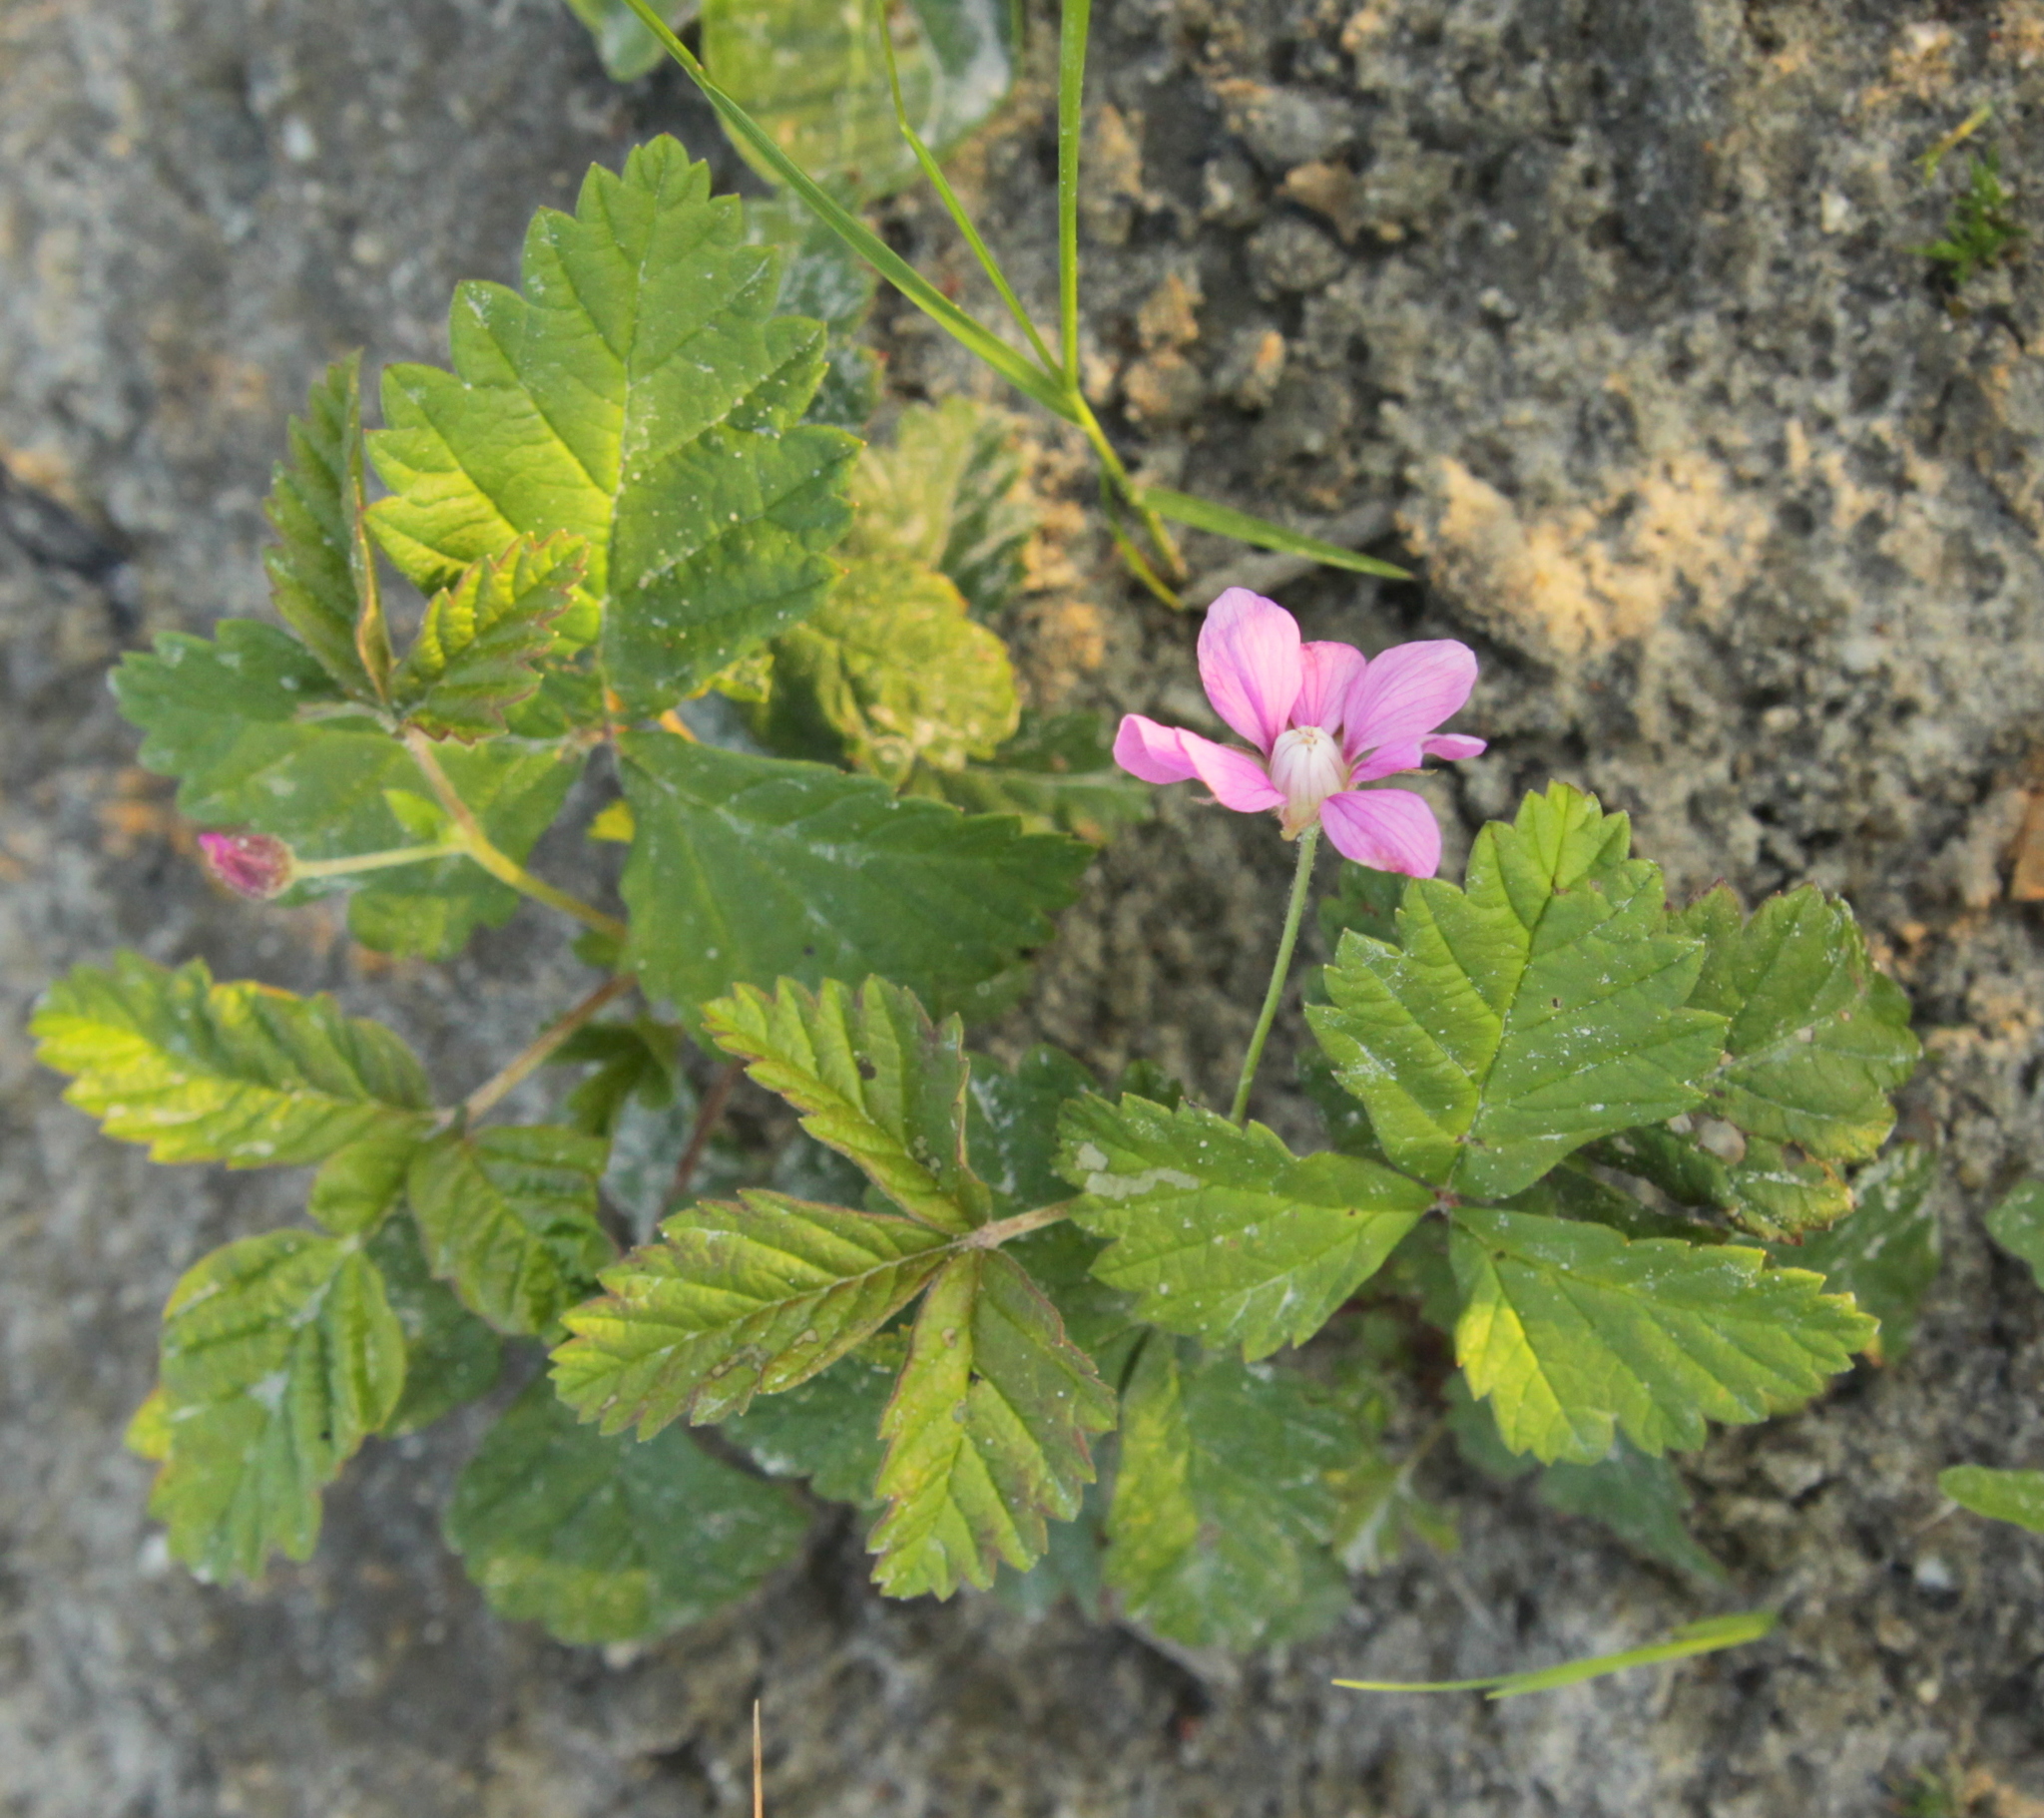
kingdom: Plantae
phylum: Tracheophyta
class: Magnoliopsida
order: Rosales
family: Rosaceae
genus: Rubus
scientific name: Rubus arcticus
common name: Arctic bramble
